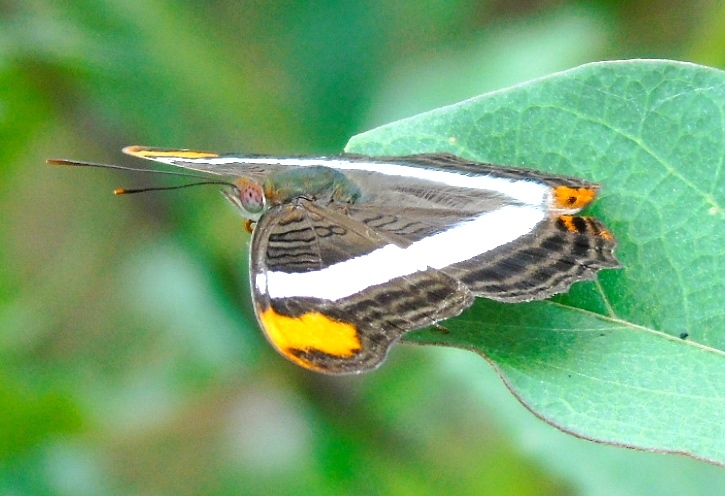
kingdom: Animalia
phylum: Arthropoda
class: Insecta
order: Lepidoptera
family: Nymphalidae
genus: Limenitis
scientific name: Limenitis fessonia
